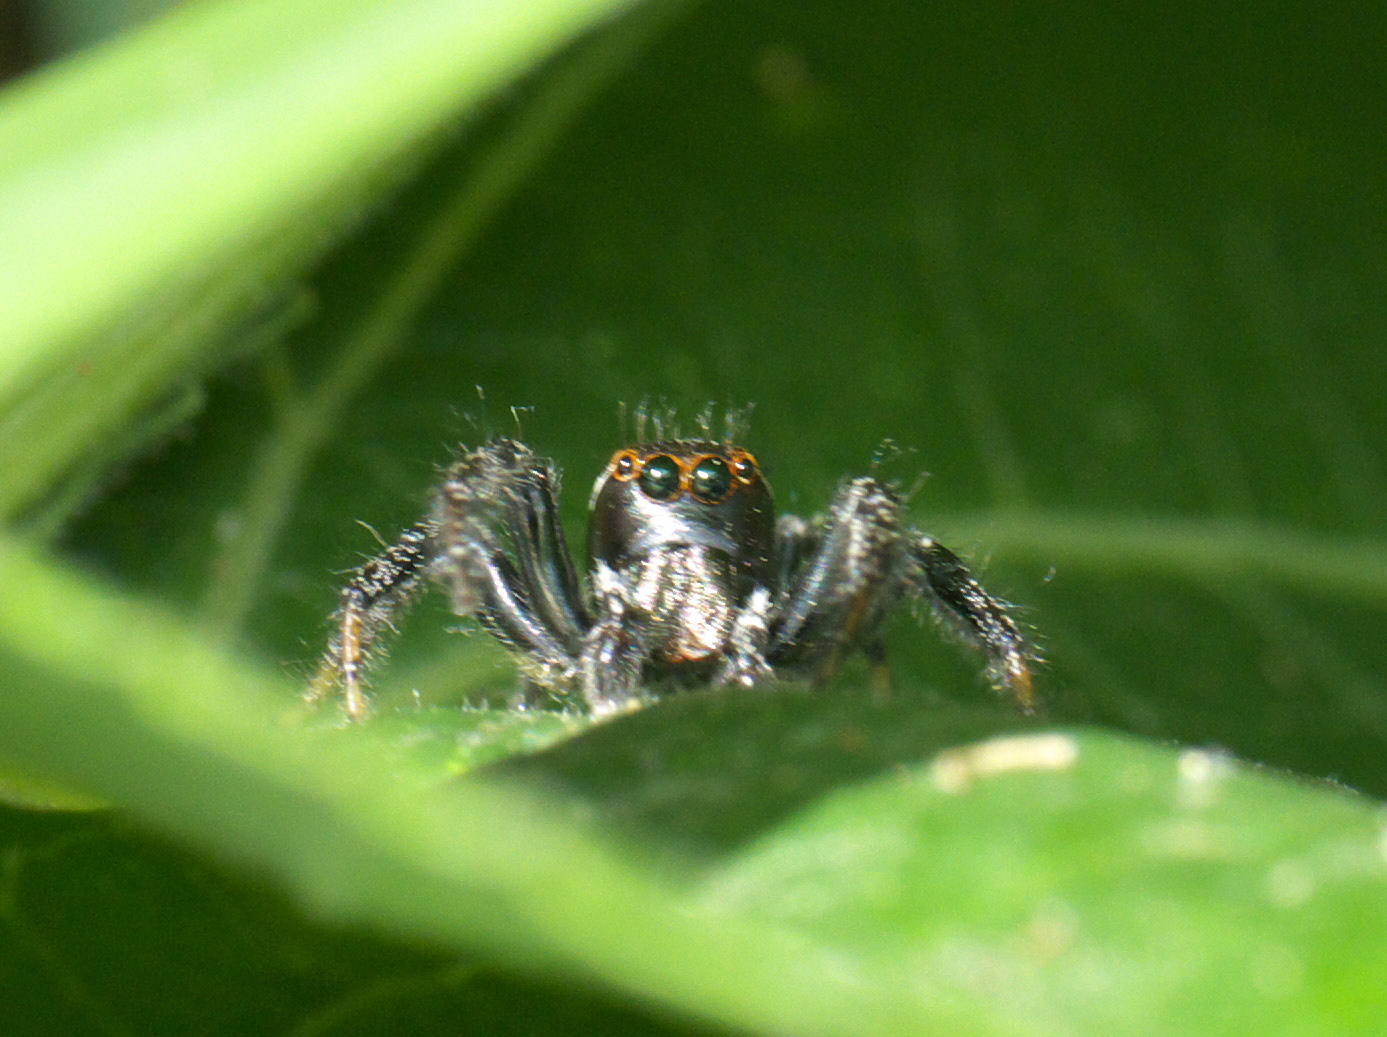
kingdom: Animalia
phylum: Arthropoda
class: Arachnida
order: Araneae
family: Salticidae
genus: Colonus
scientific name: Colonus sylvanus
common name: Jumping spiders
